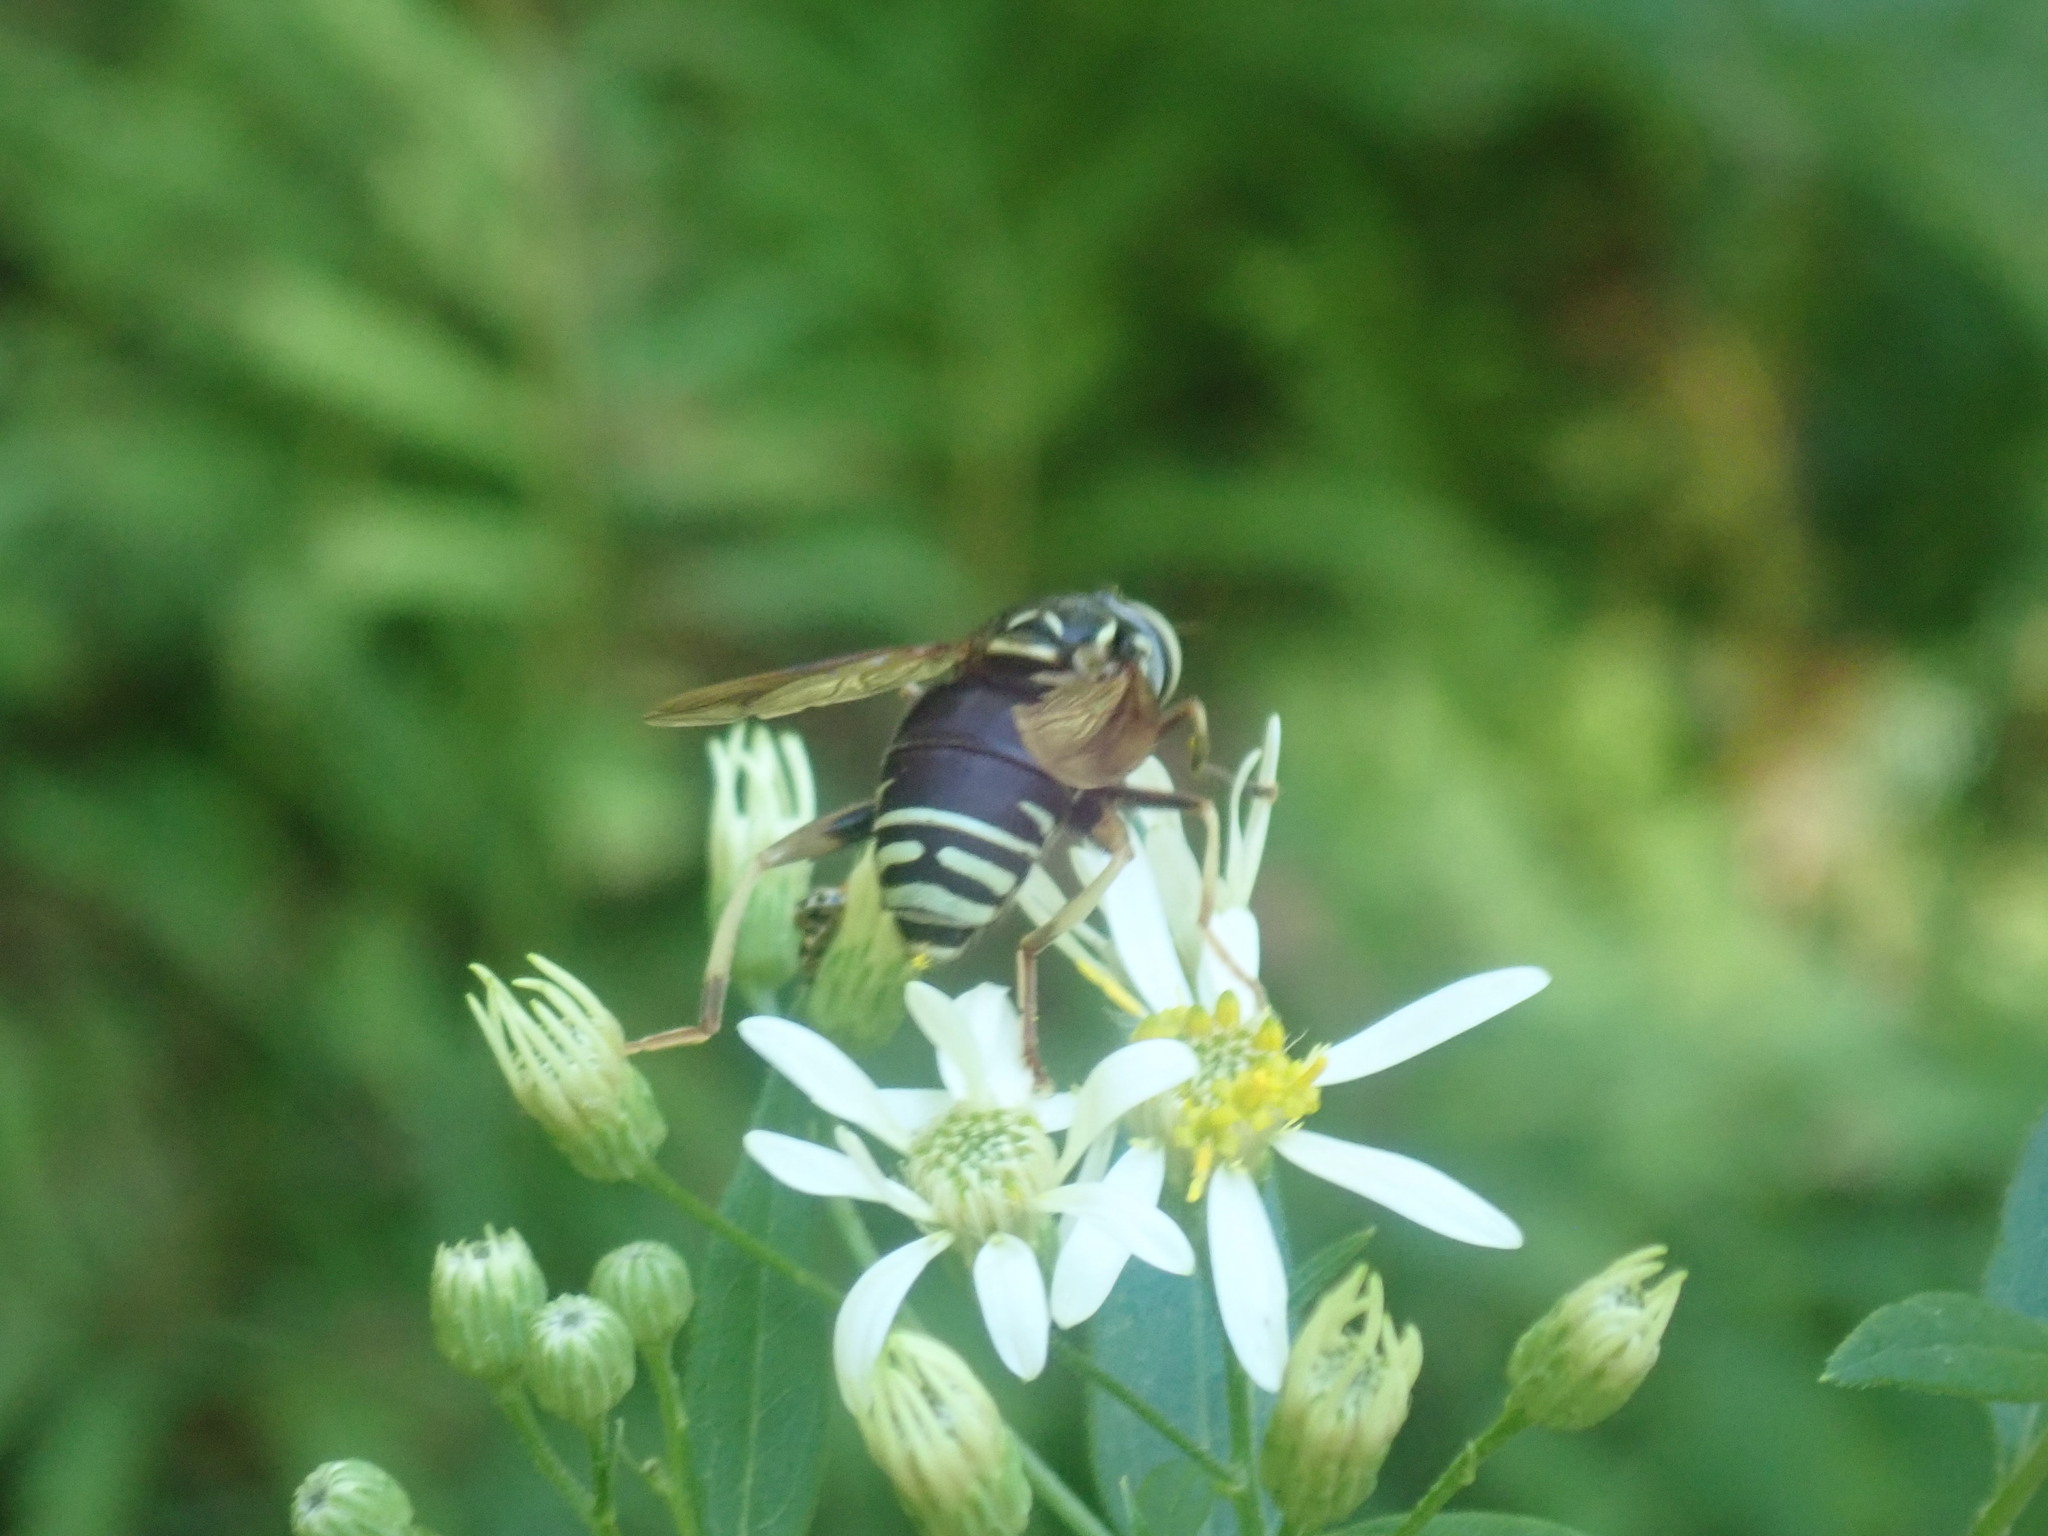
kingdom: Animalia
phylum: Arthropoda
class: Insecta
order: Diptera
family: Syrphidae
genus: Spilomyia
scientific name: Spilomyia fusca
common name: Bald-faced hornet fly
